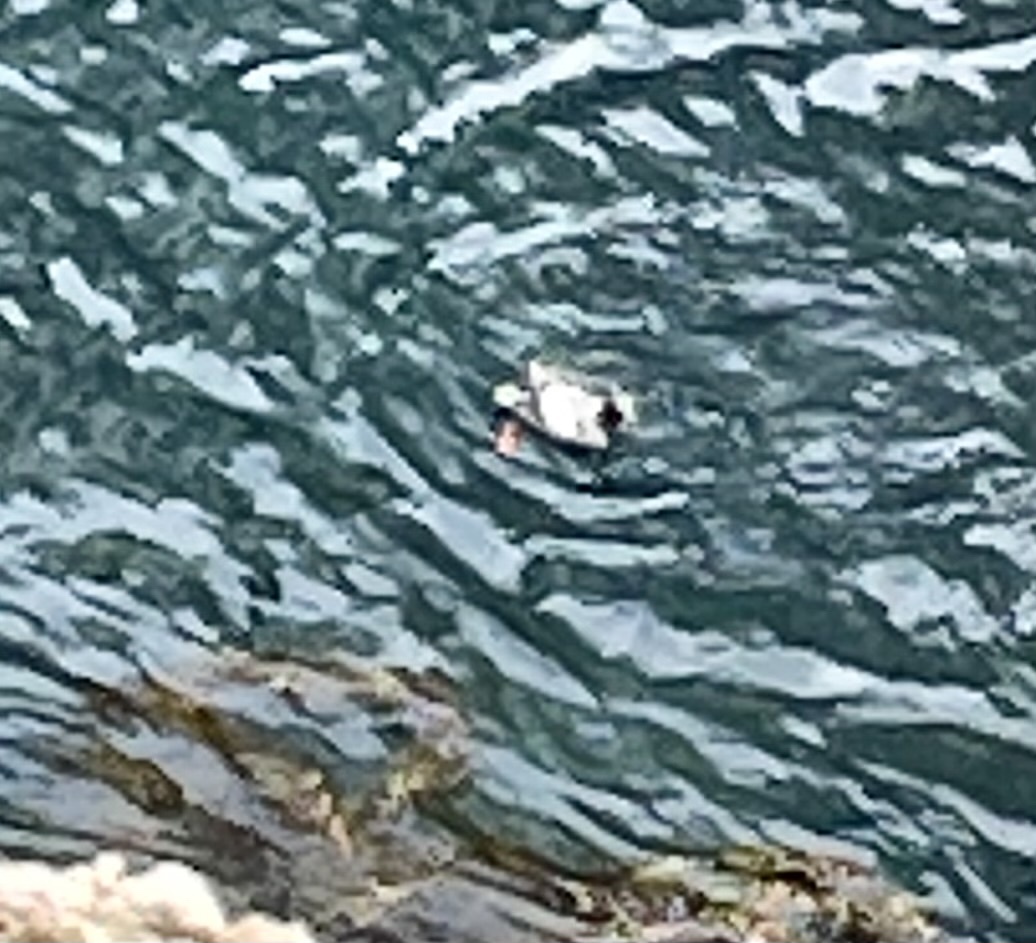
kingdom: Animalia
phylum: Chordata
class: Aves
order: Charadriiformes
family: Alcidae
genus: Cepphus
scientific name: Cepphus columba
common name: Pigeon guillemot
